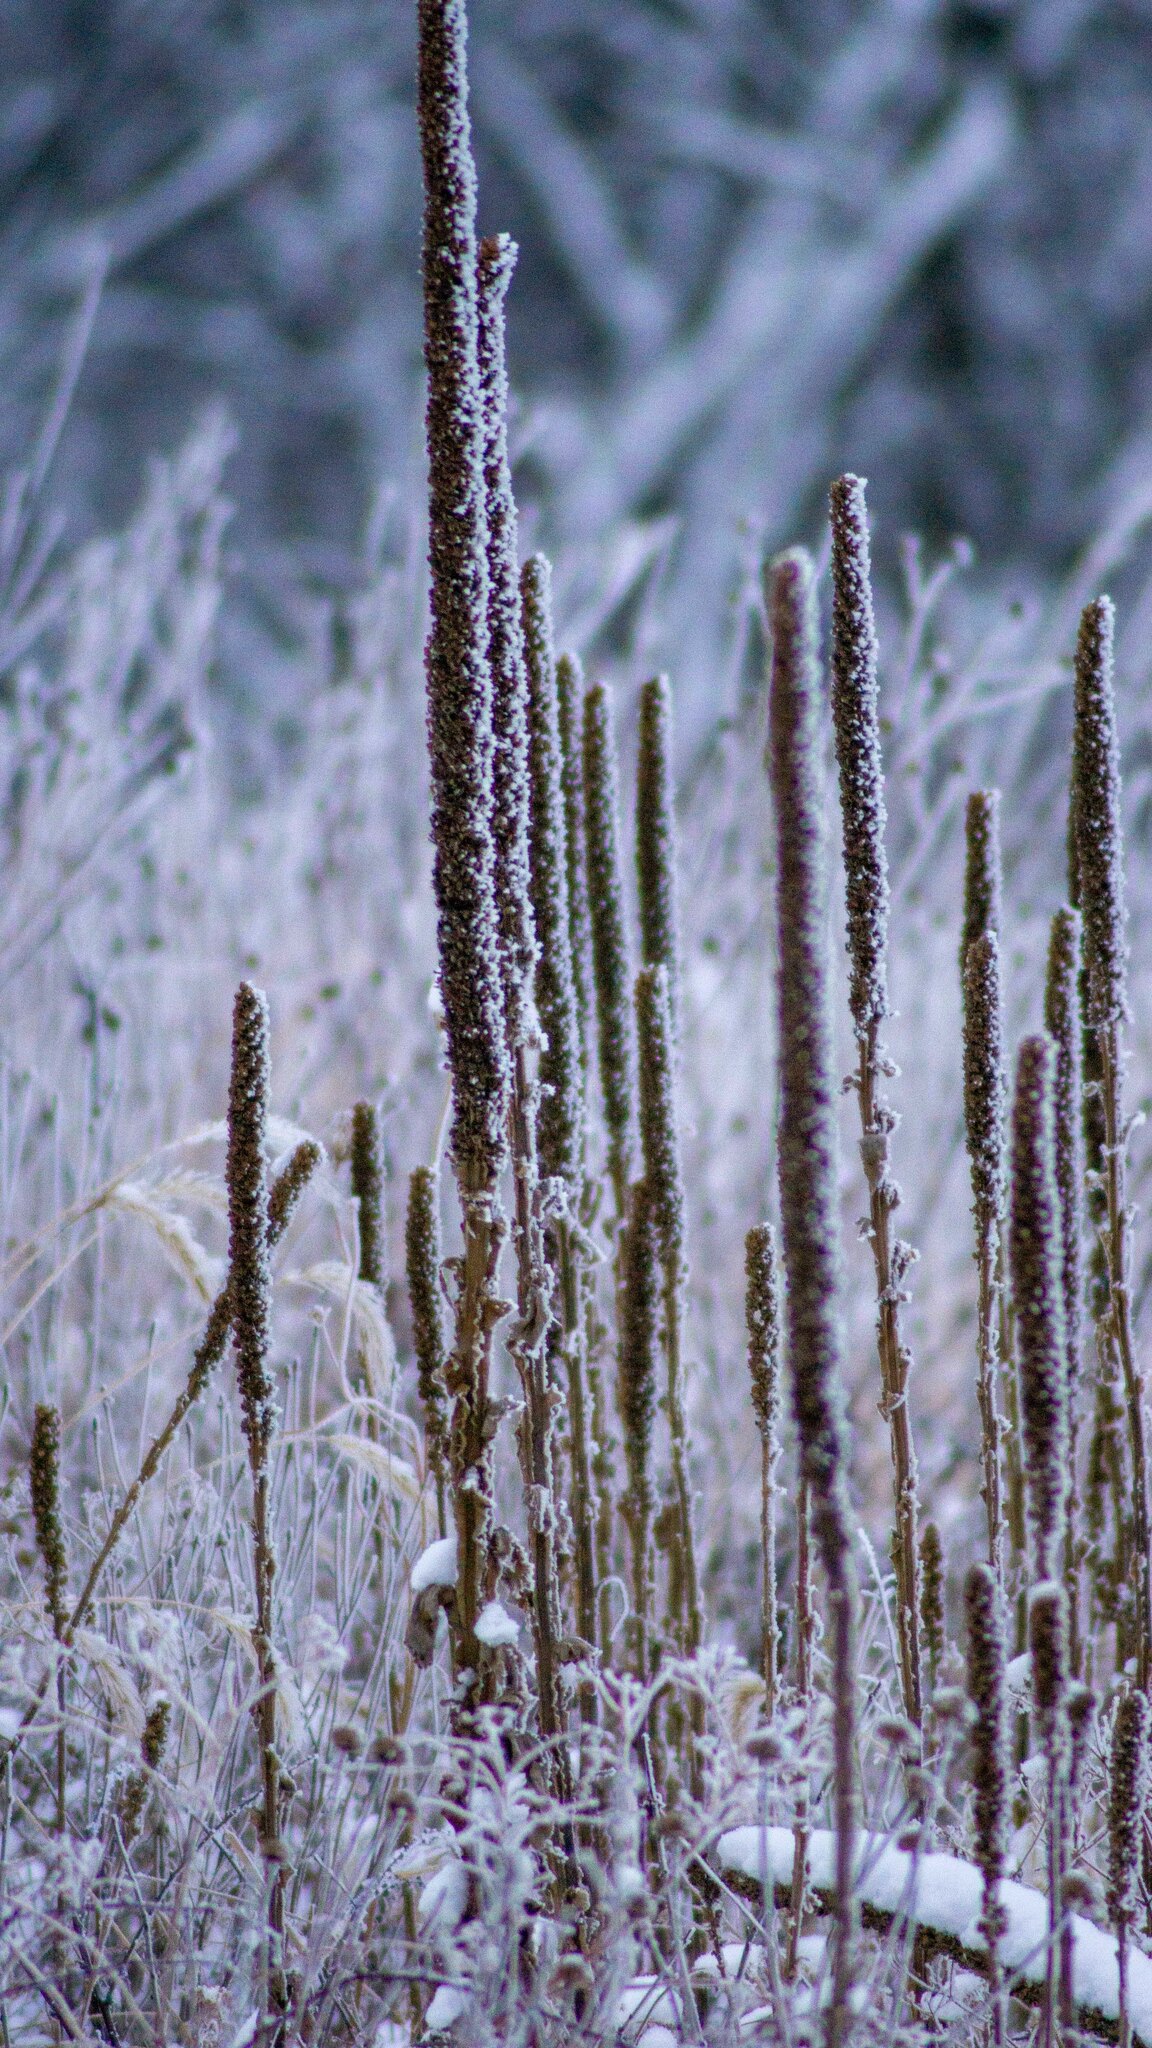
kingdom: Plantae
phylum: Tracheophyta
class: Magnoliopsida
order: Lamiales
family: Scrophulariaceae
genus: Verbascum
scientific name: Verbascum thapsus
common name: Common mullein
